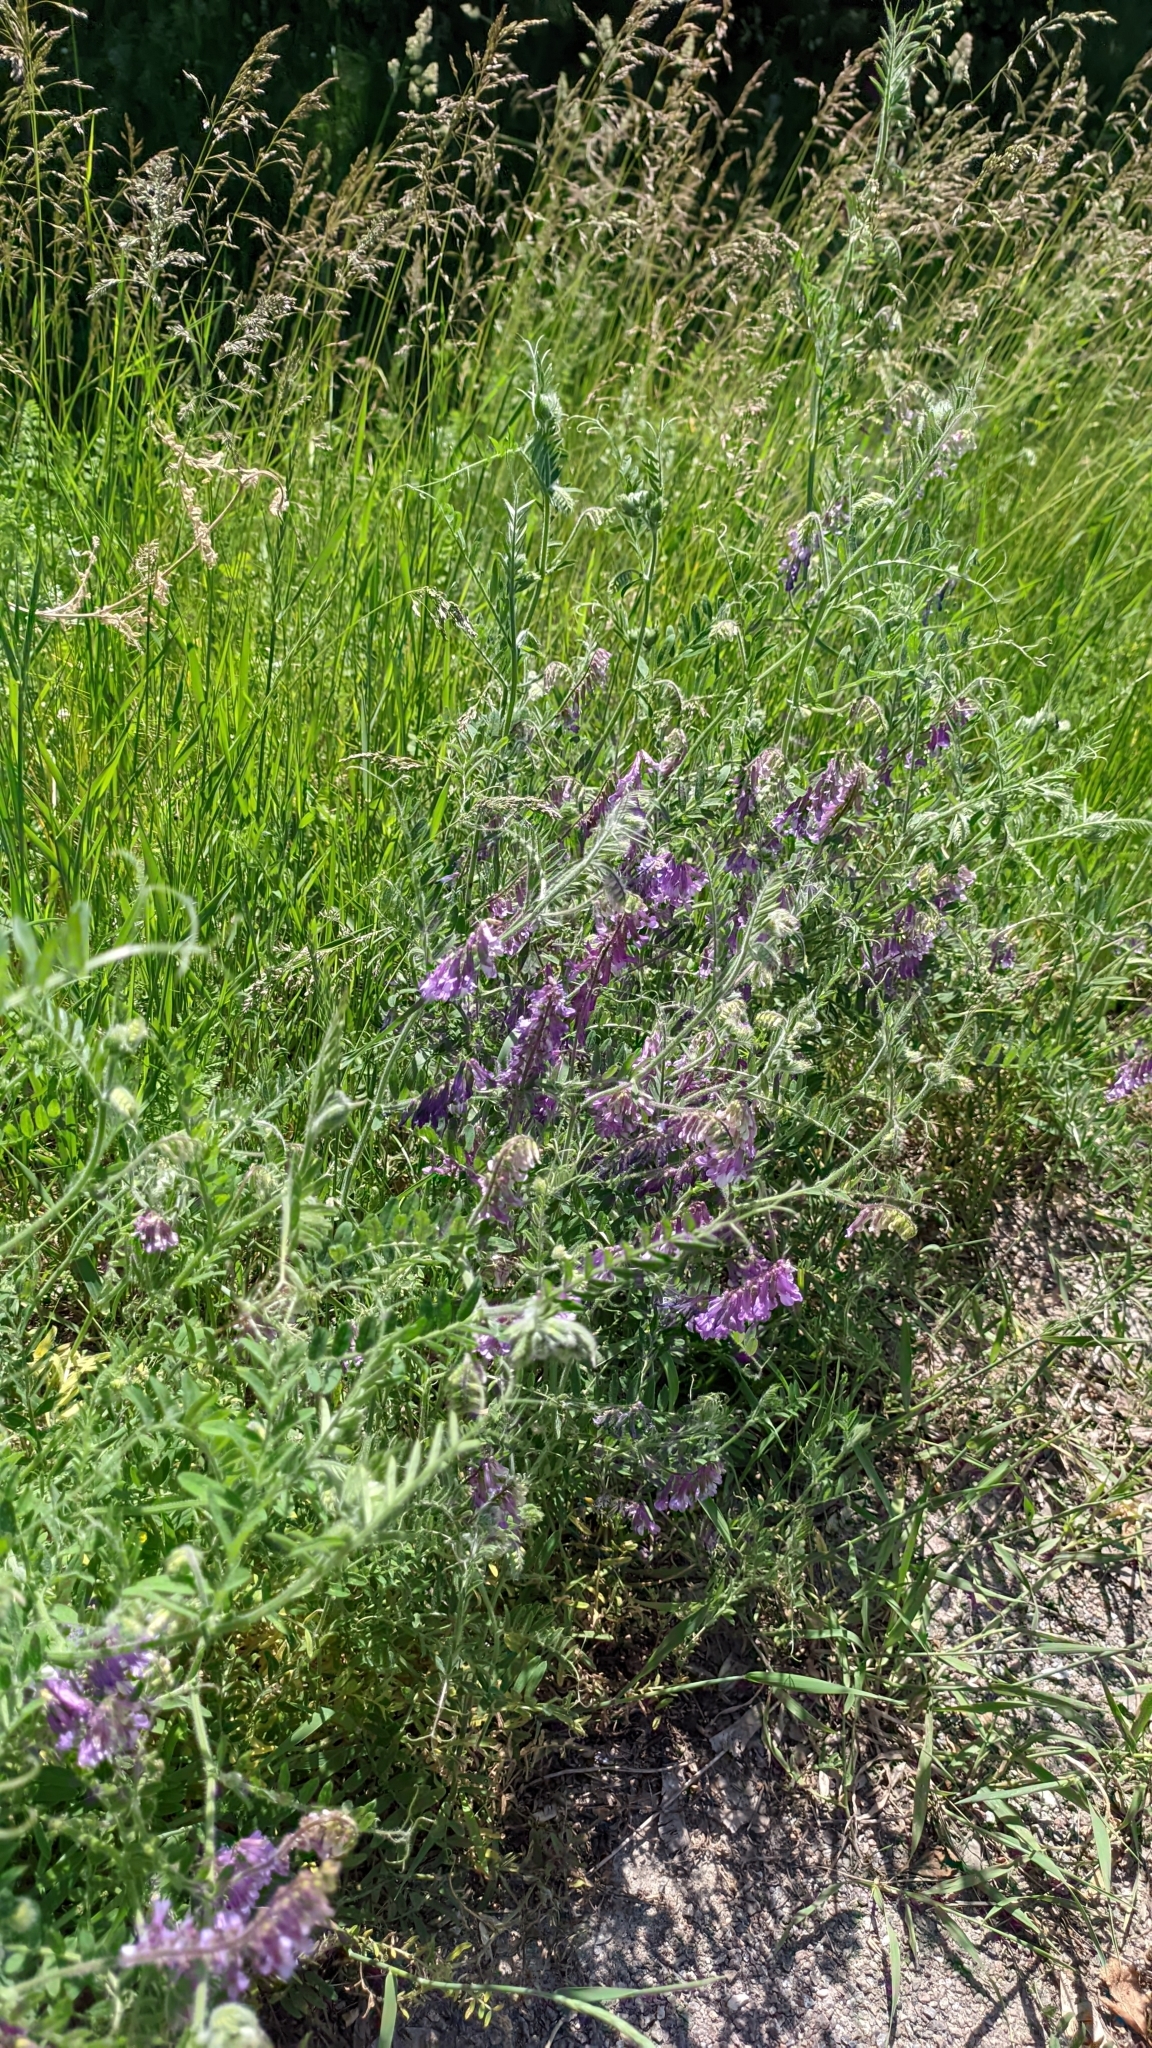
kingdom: Plantae
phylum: Tracheophyta
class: Magnoliopsida
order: Fabales
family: Fabaceae
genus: Vicia
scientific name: Vicia villosa
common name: Fodder vetch
